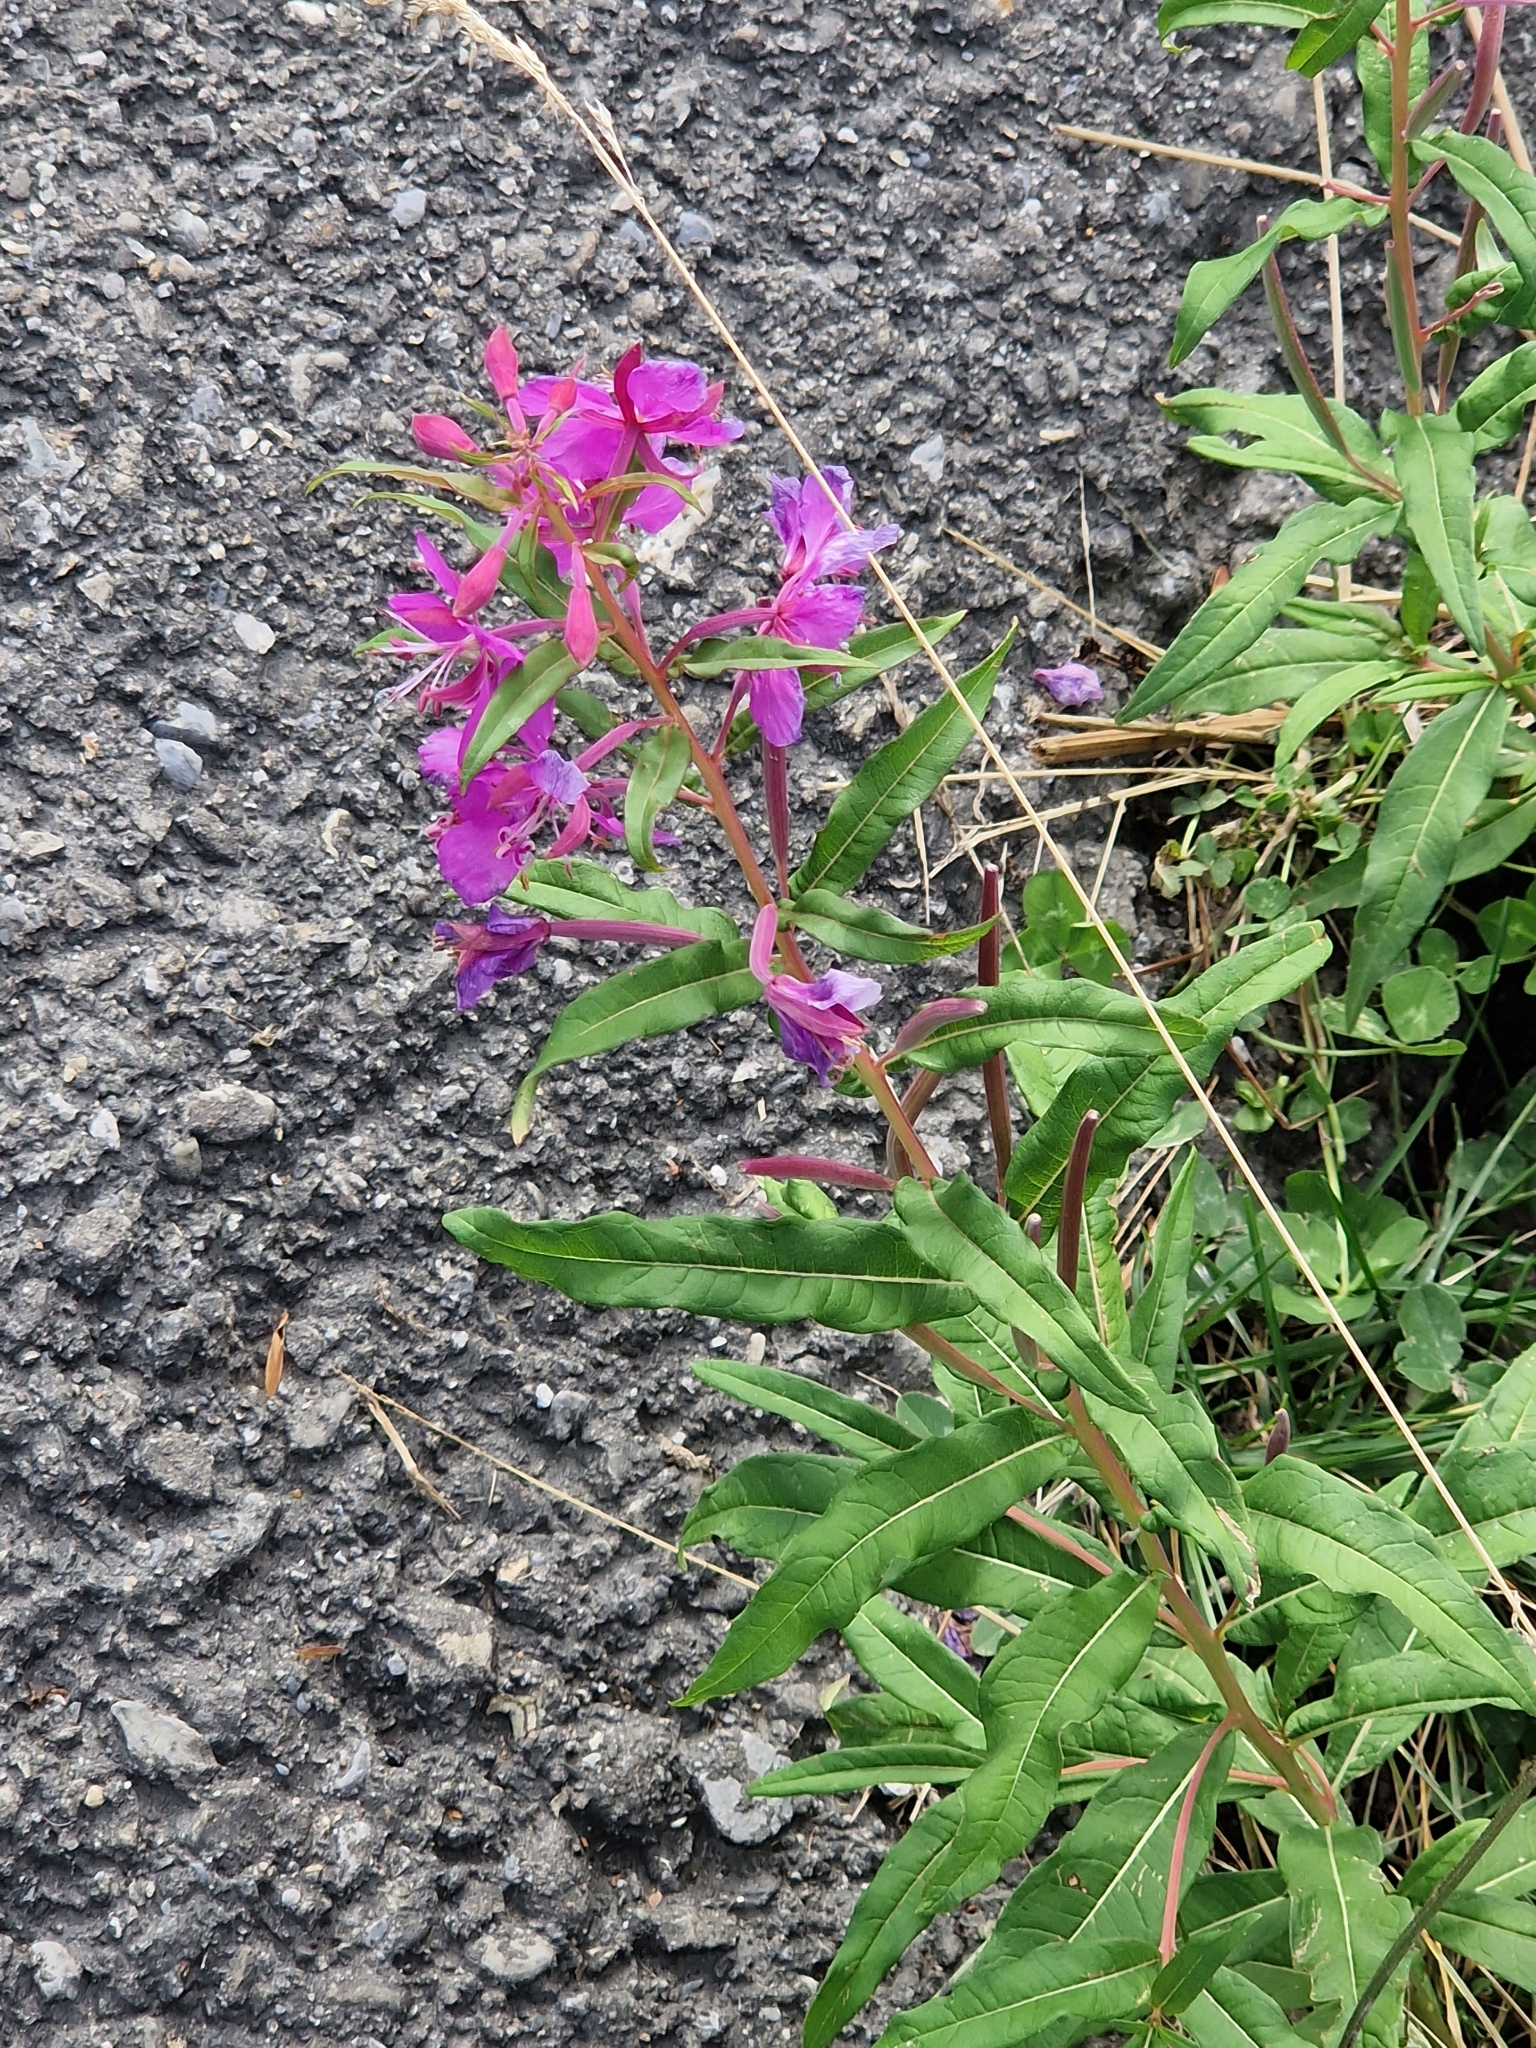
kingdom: Plantae
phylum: Tracheophyta
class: Magnoliopsida
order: Myrtales
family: Onagraceae
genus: Chamaenerion
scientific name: Chamaenerion angustifolium
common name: Fireweed
